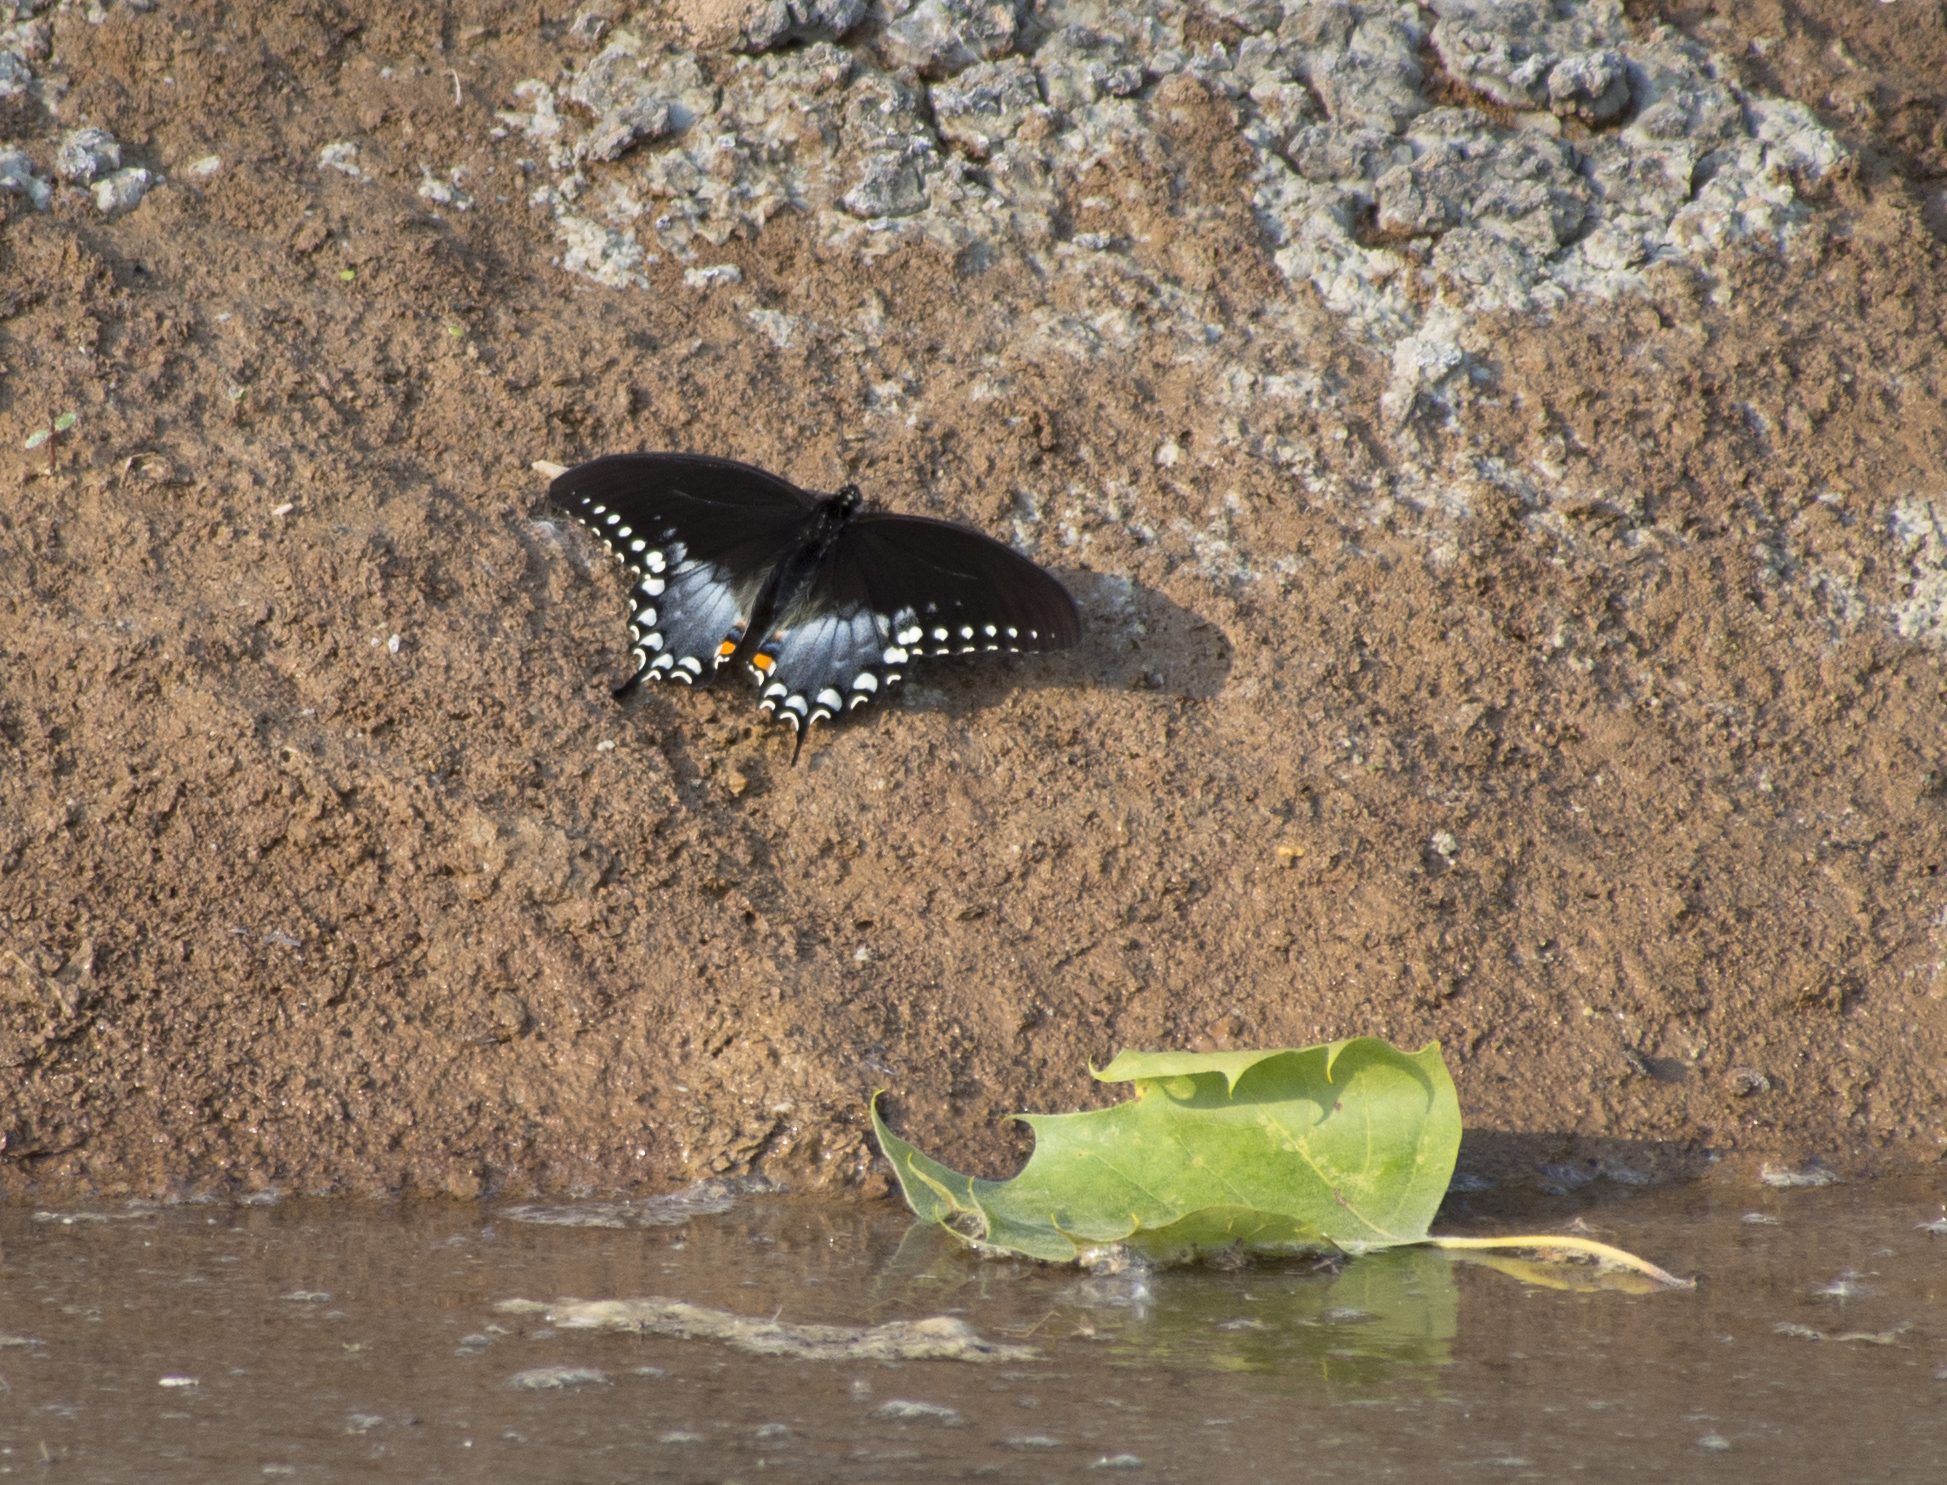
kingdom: Animalia
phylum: Arthropoda
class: Insecta
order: Lepidoptera
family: Papilionidae
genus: Papilio
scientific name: Papilio troilus
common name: Spicebush swallowtail
